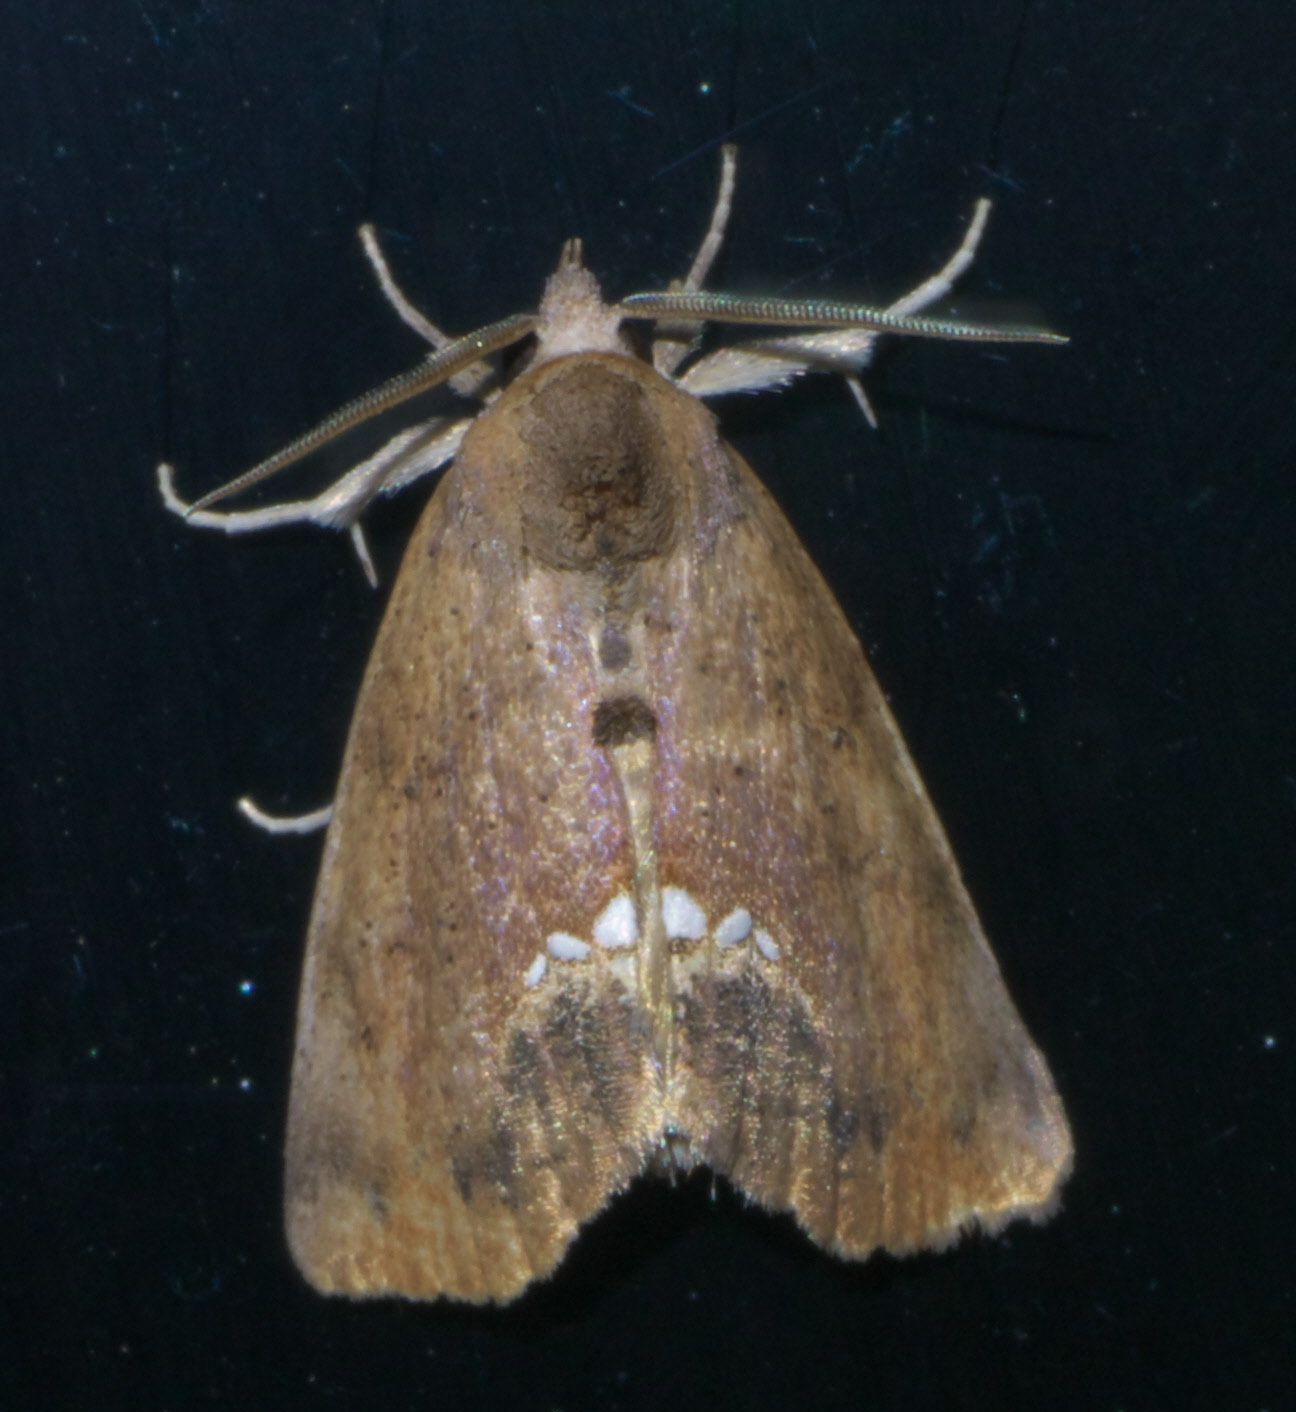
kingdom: Animalia
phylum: Arthropoda
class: Insecta
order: Lepidoptera
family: Erebidae
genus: Hypsoropha
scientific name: Hypsoropha hormos
